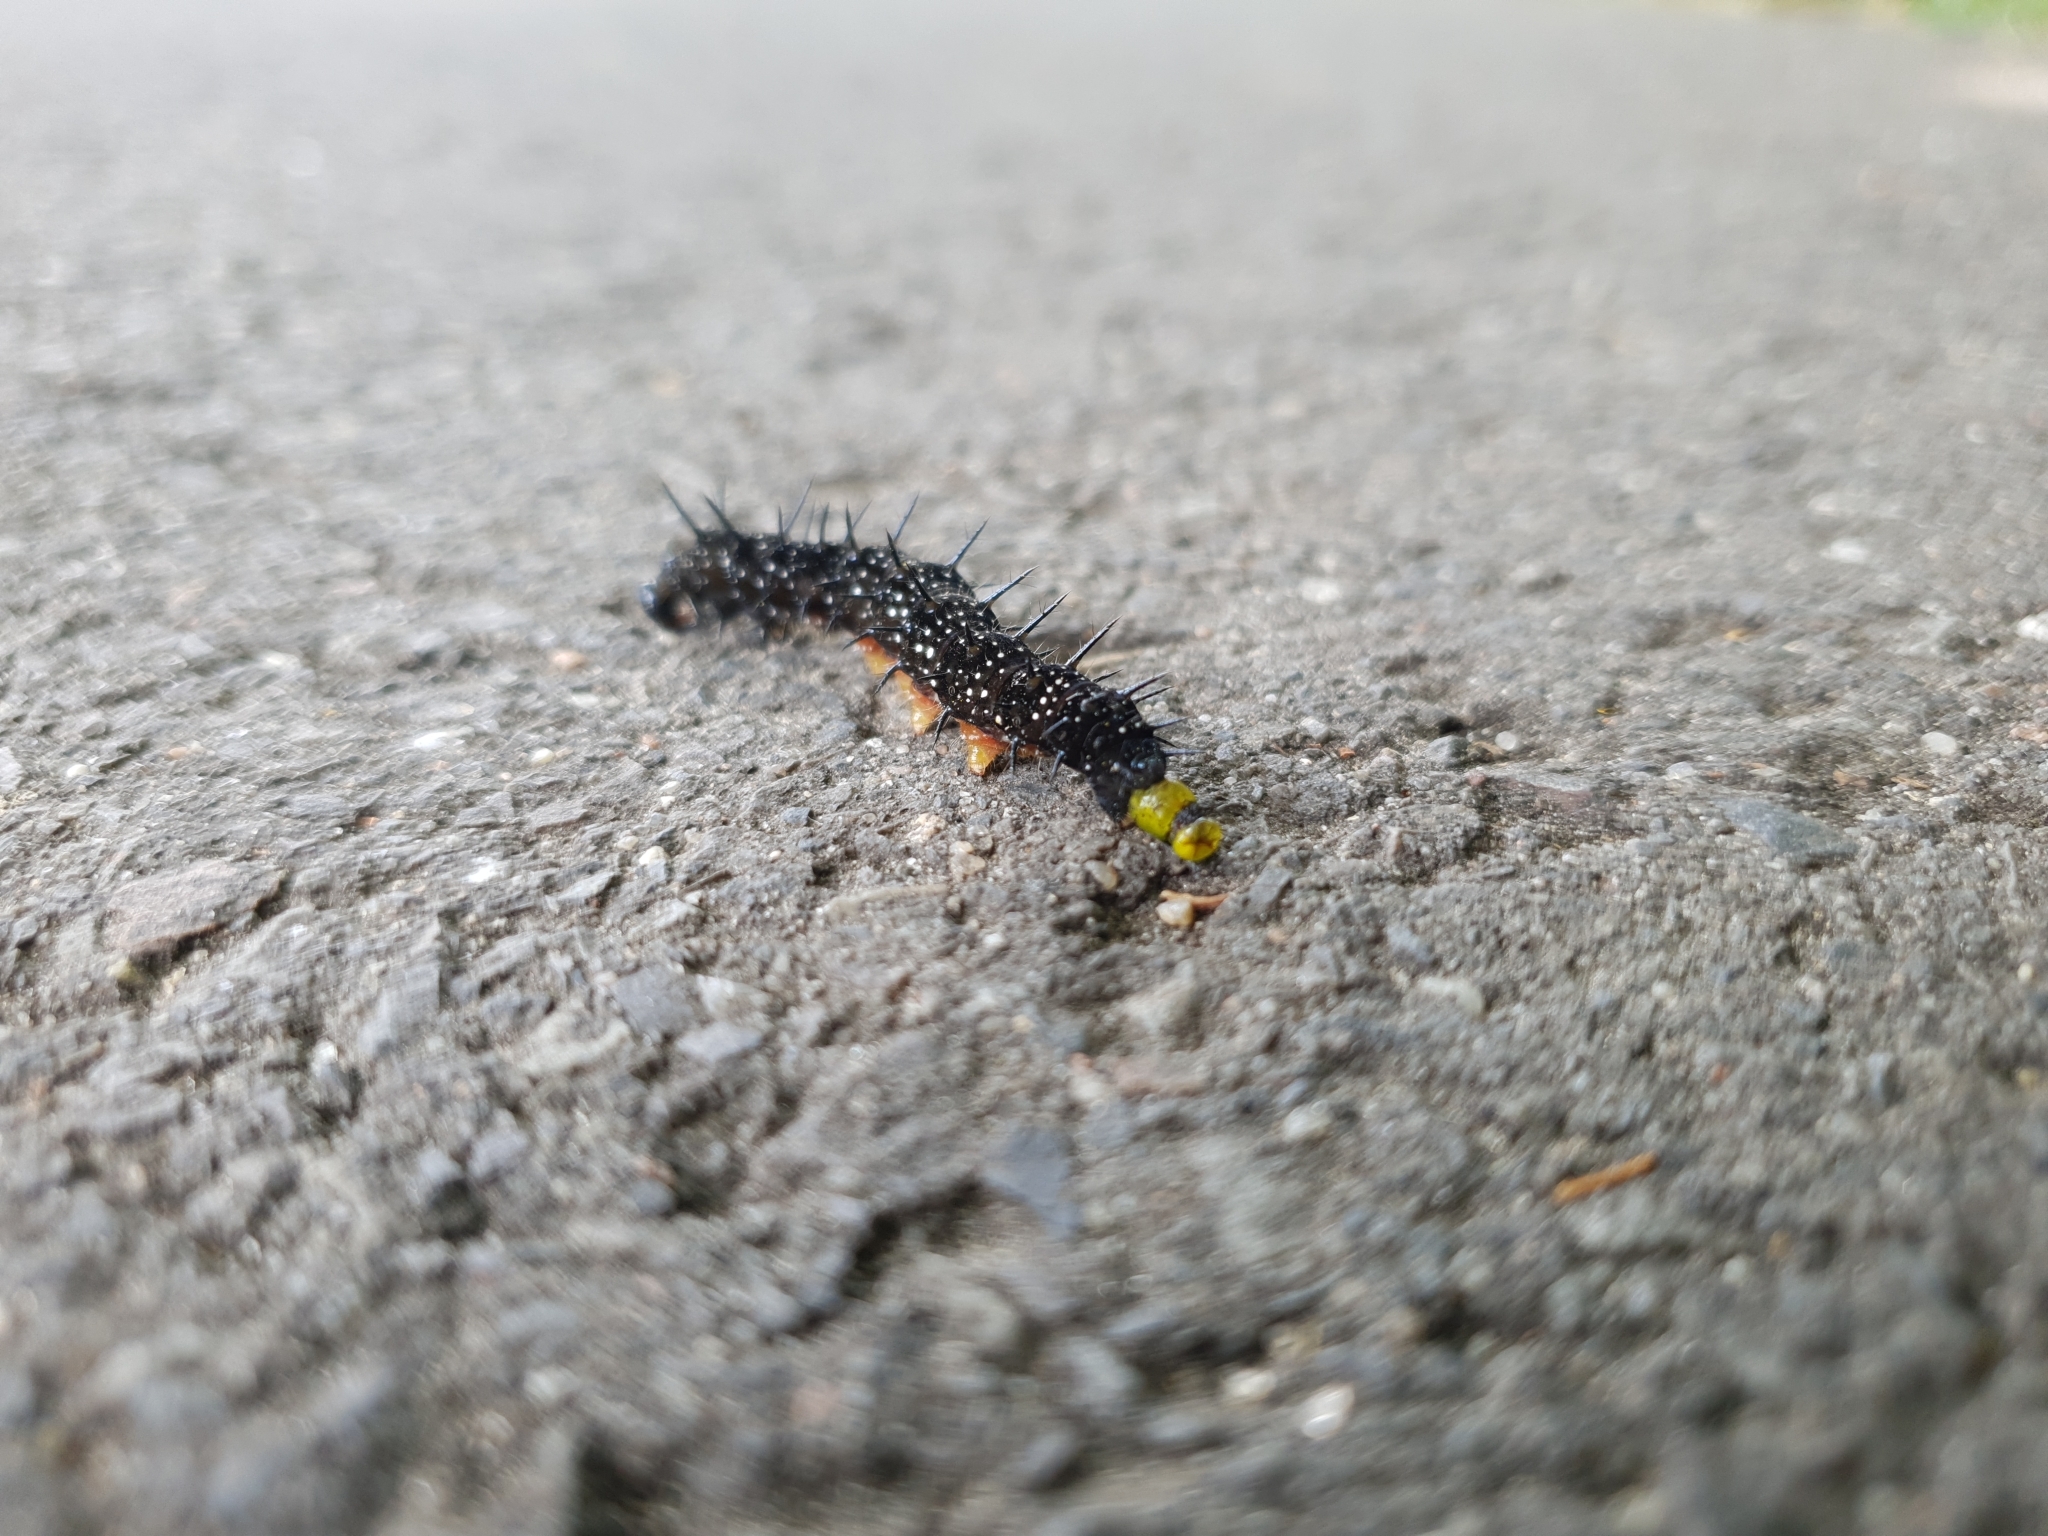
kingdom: Animalia
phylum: Arthropoda
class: Insecta
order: Lepidoptera
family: Nymphalidae
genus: Aglais
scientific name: Aglais io
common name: Peacock
